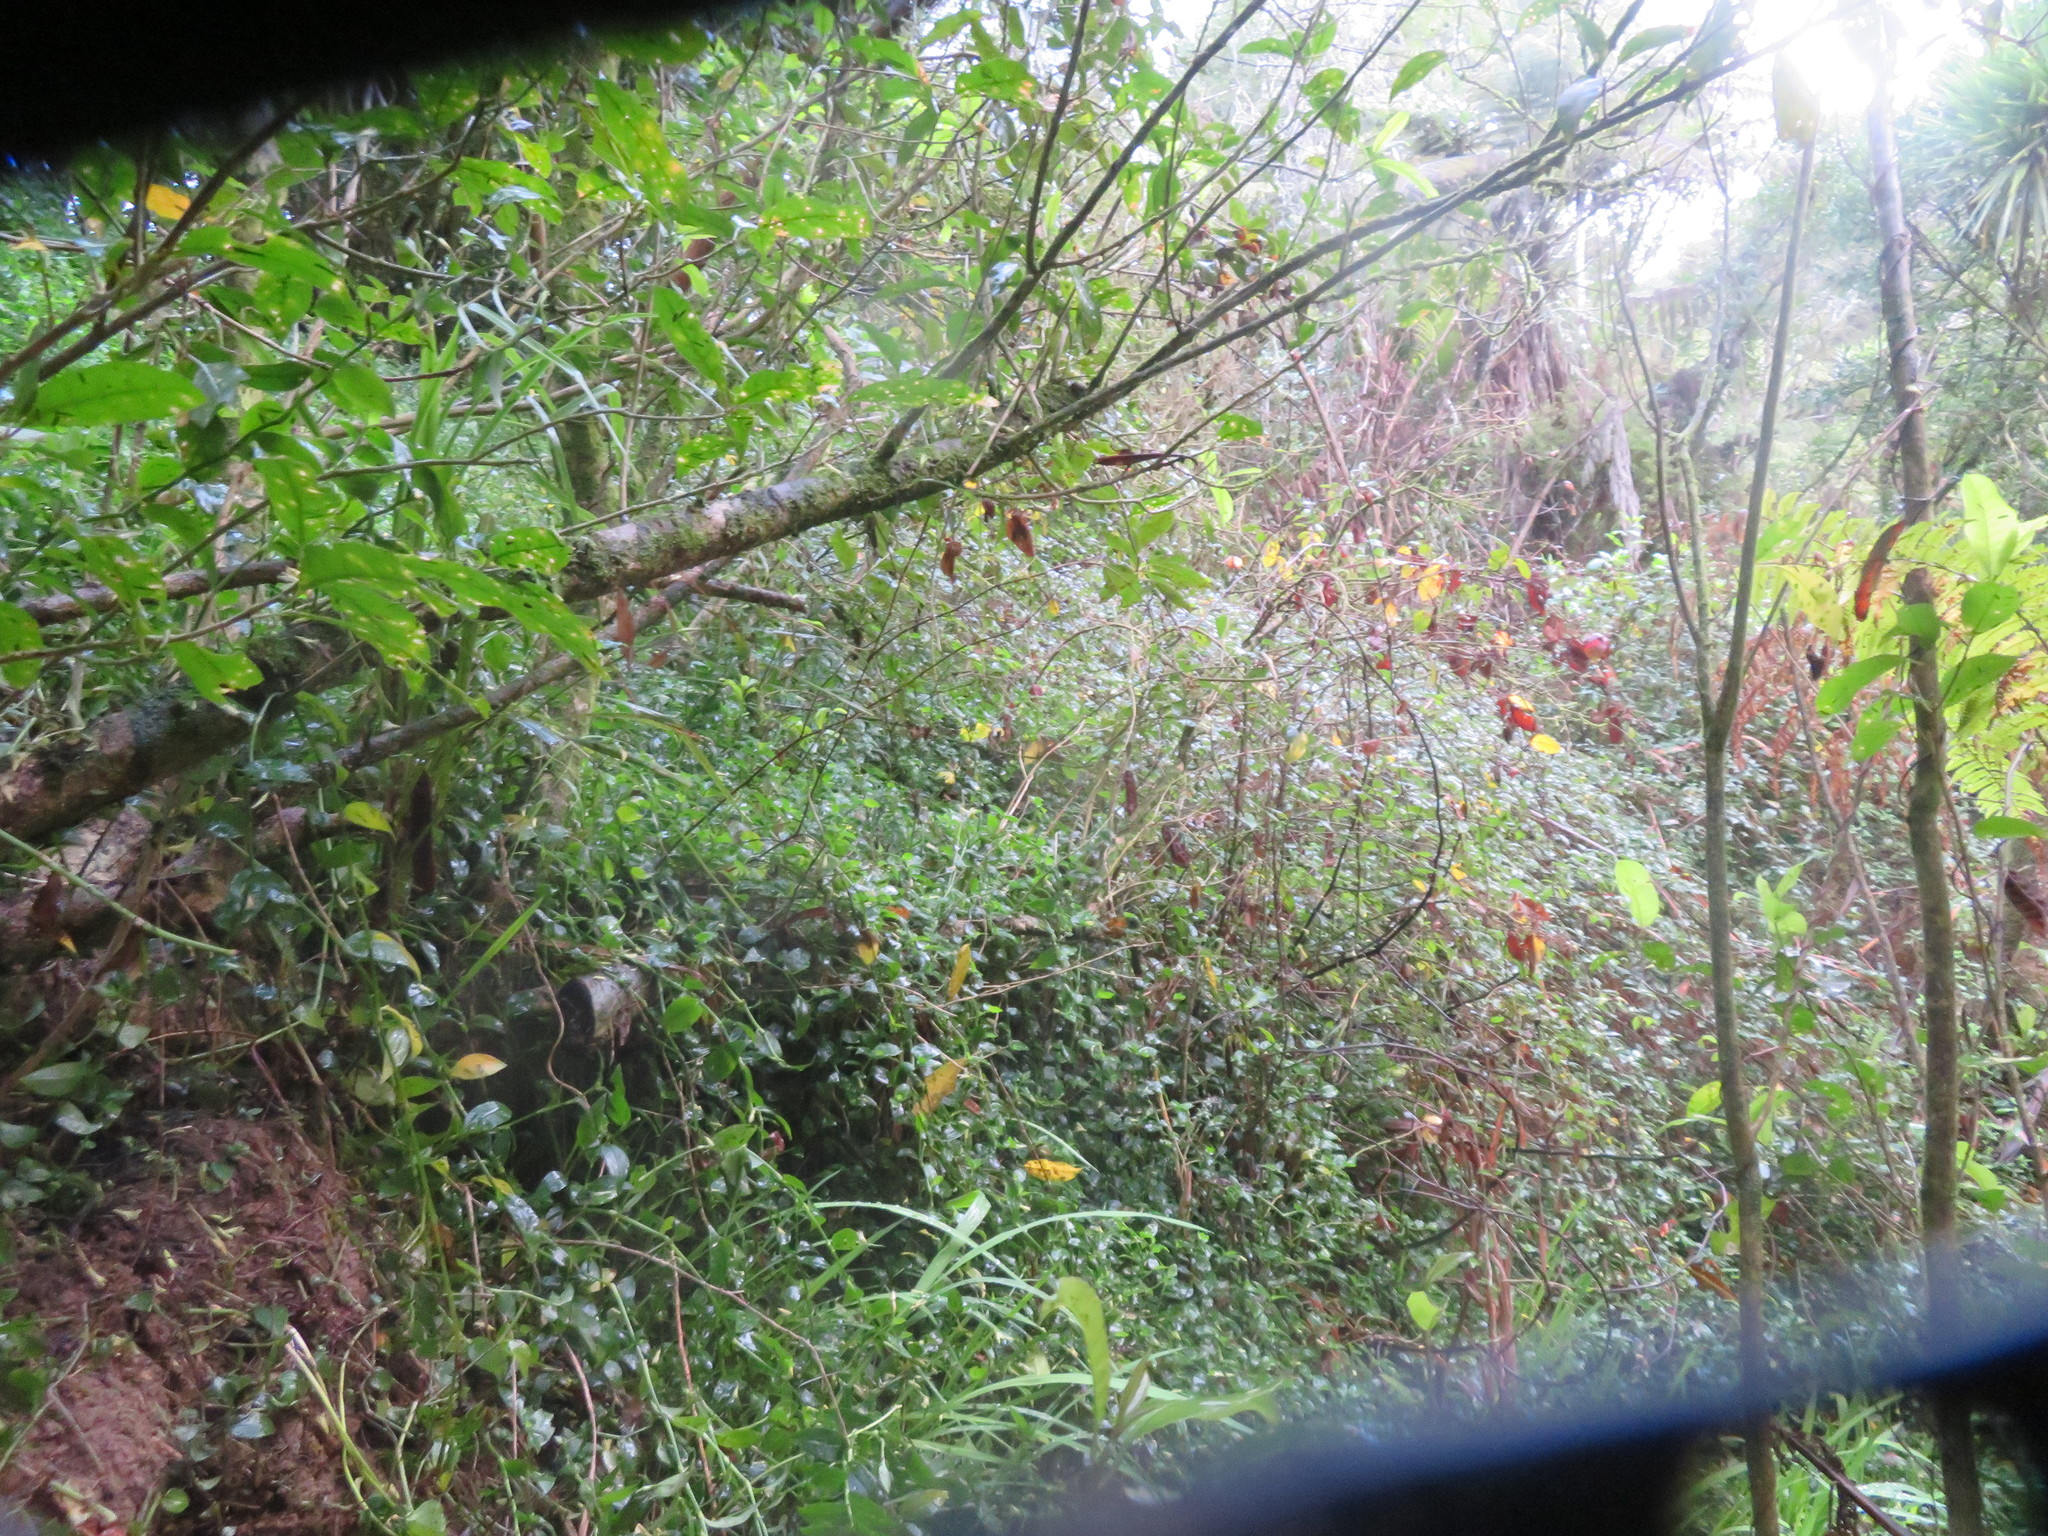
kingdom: Plantae
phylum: Tracheophyta
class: Magnoliopsida
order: Malpighiales
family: Violaceae
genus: Melicytus
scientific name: Melicytus ramiflorus
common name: Mahoe
